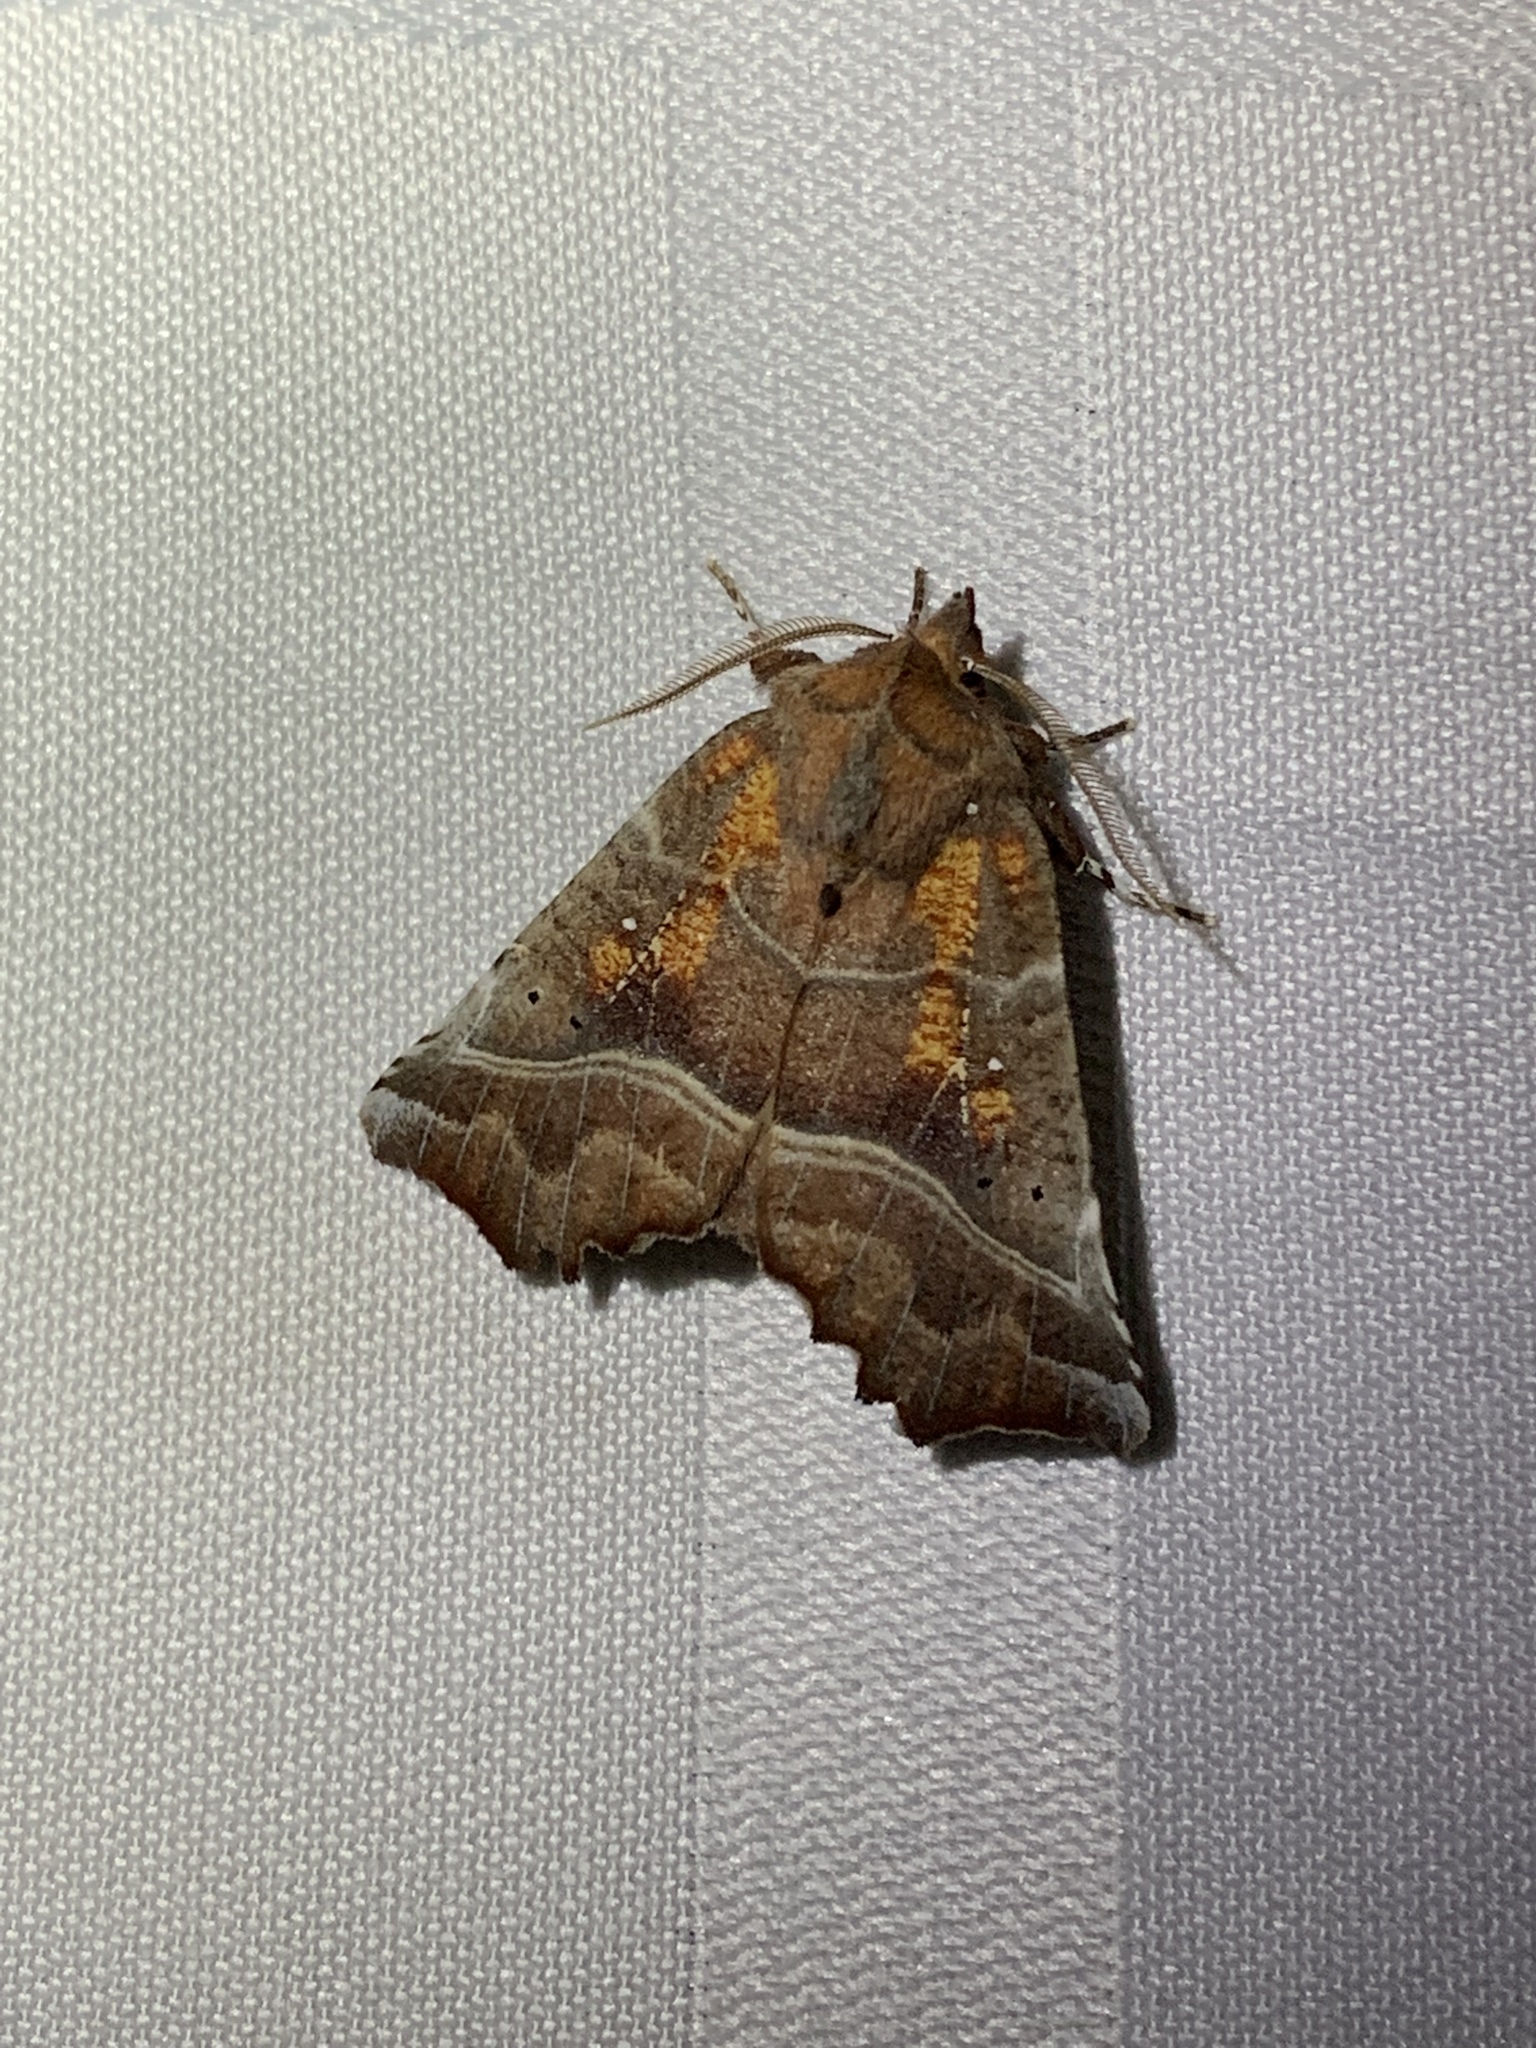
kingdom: Animalia
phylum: Arthropoda
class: Insecta
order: Lepidoptera
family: Erebidae
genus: Scoliopteryx
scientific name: Scoliopteryx libatrix
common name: Herald
